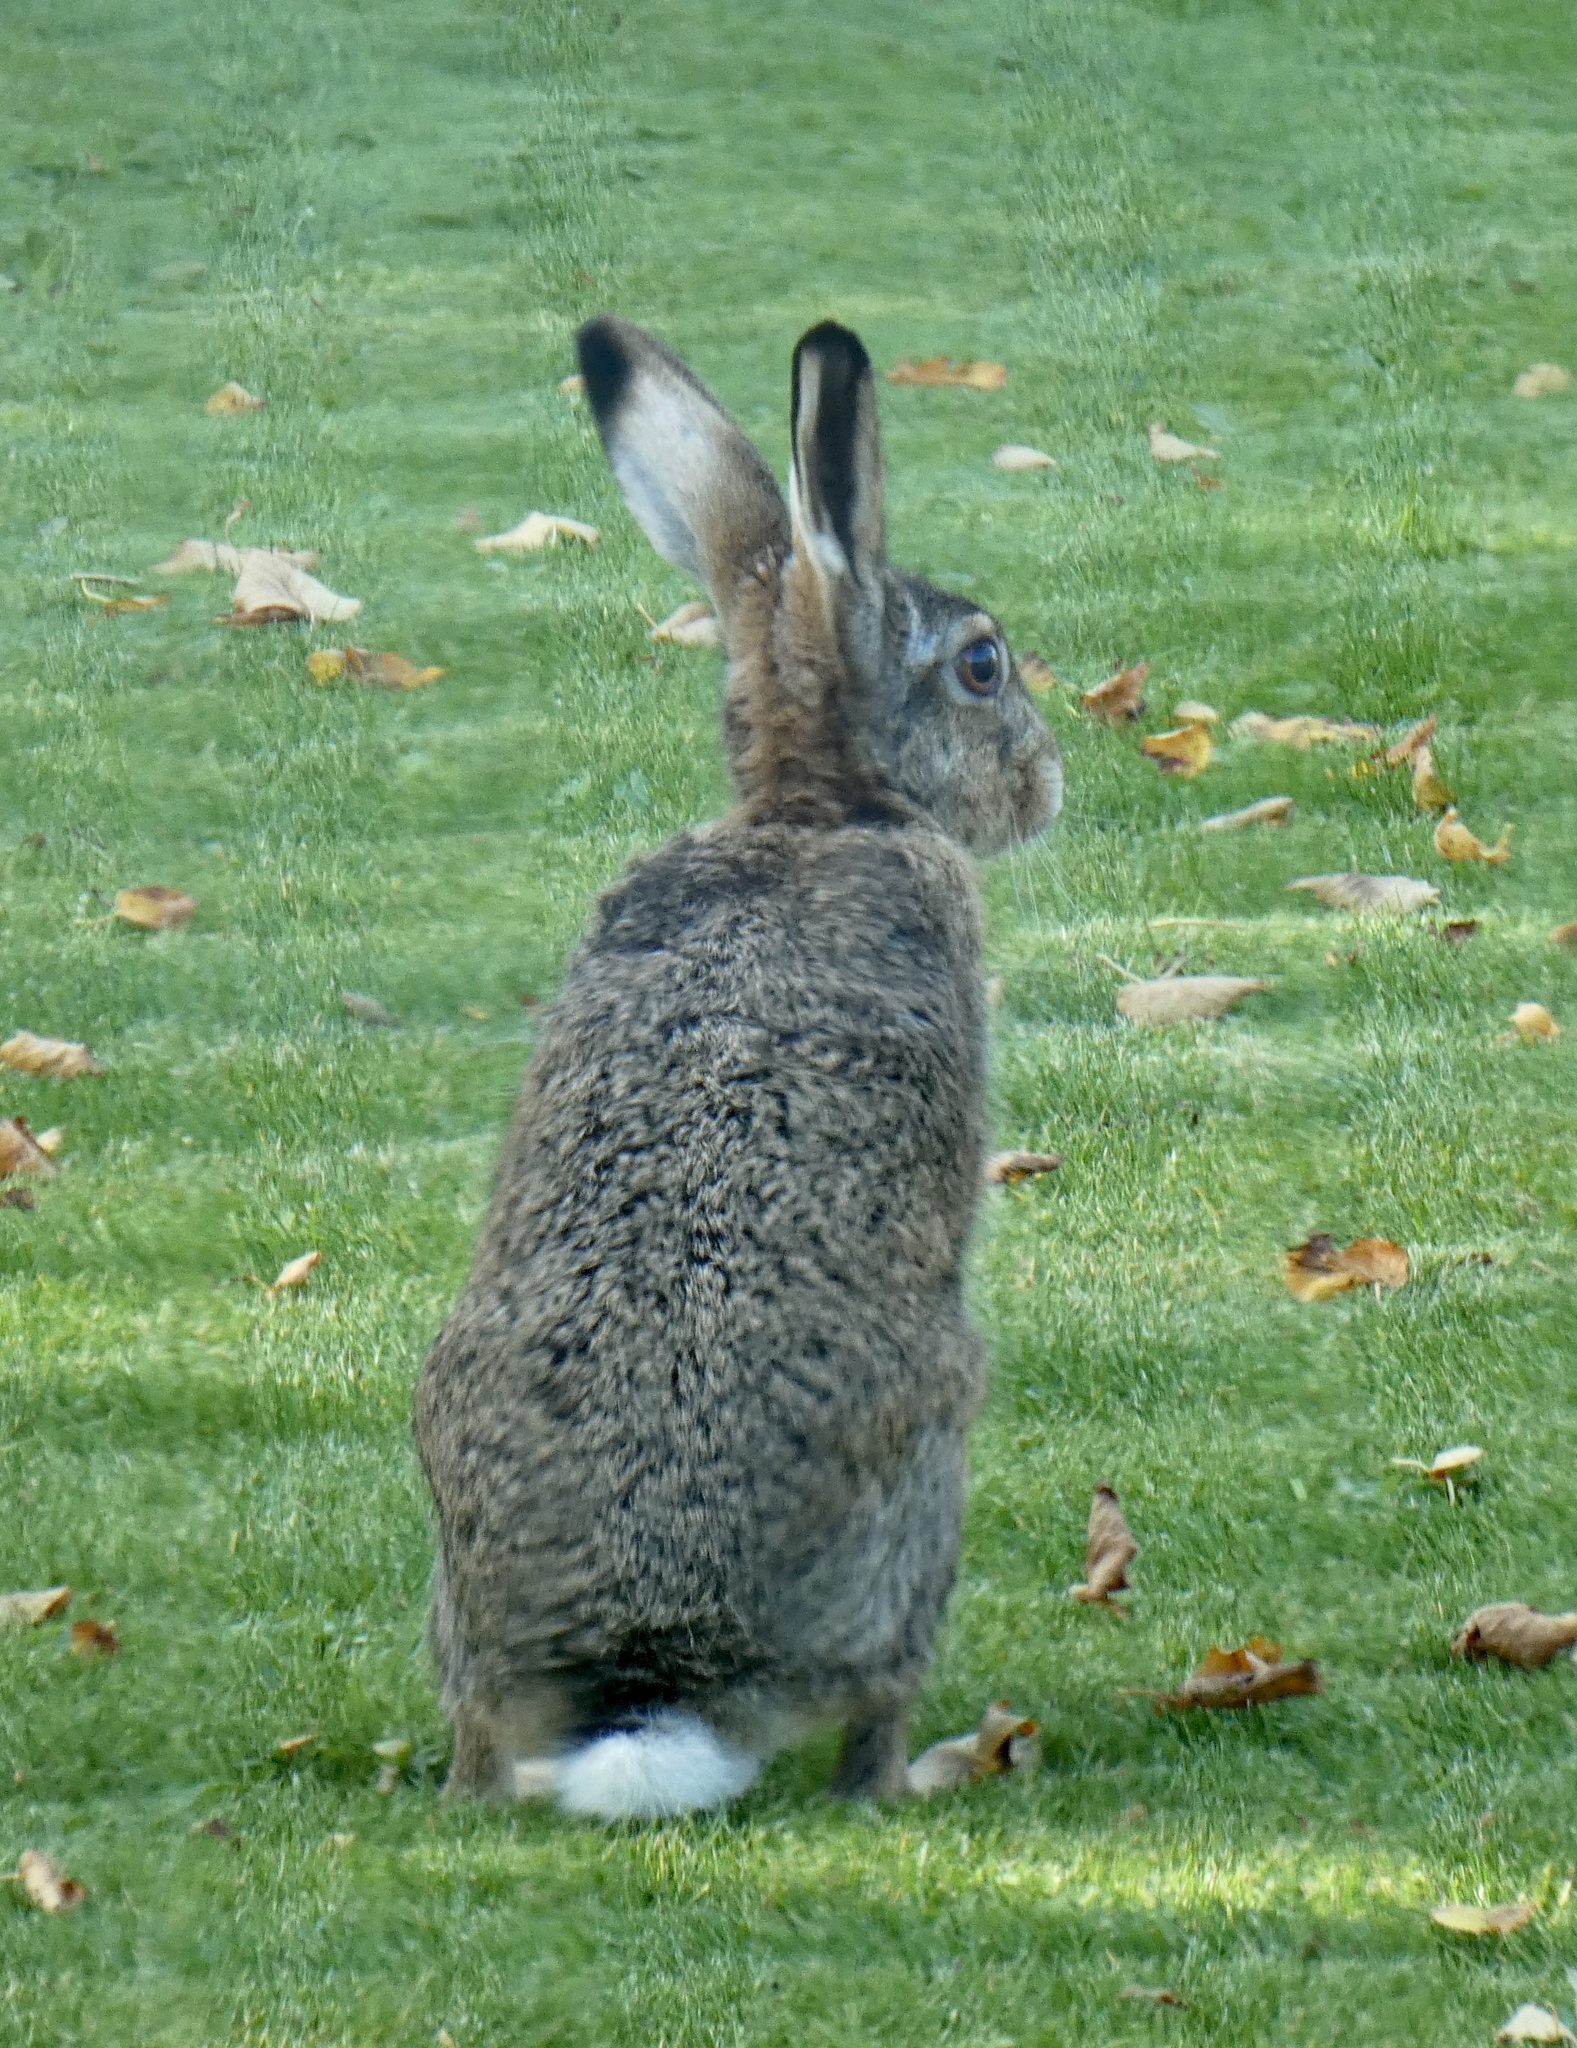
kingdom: Animalia
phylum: Chordata
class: Mammalia
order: Lagomorpha
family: Leporidae
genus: Lepus
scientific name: Lepus europaeus
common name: European hare
